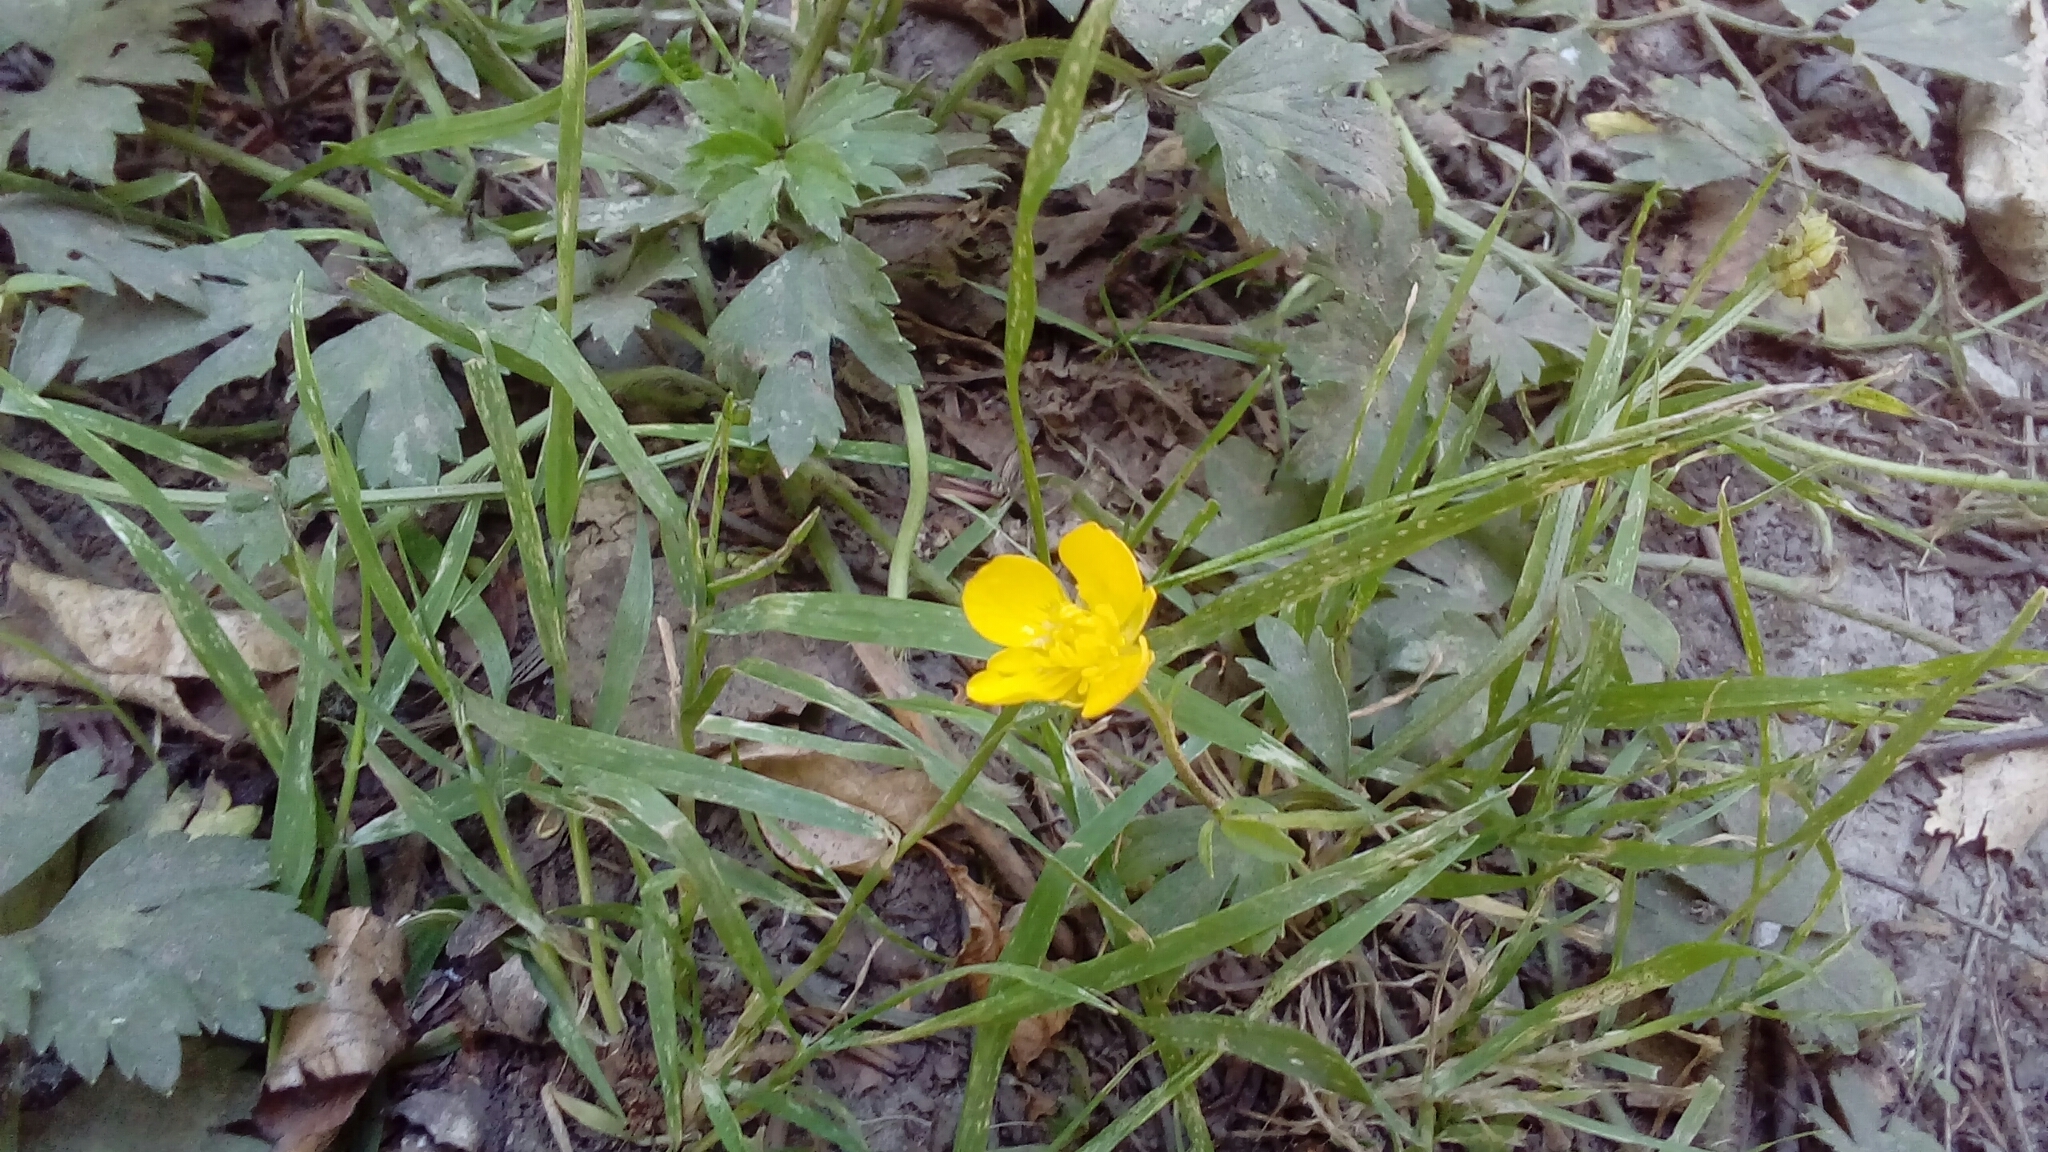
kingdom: Plantae
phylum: Tracheophyta
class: Magnoliopsida
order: Ranunculales
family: Ranunculaceae
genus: Ranunculus
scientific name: Ranunculus repens
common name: Creeping buttercup
